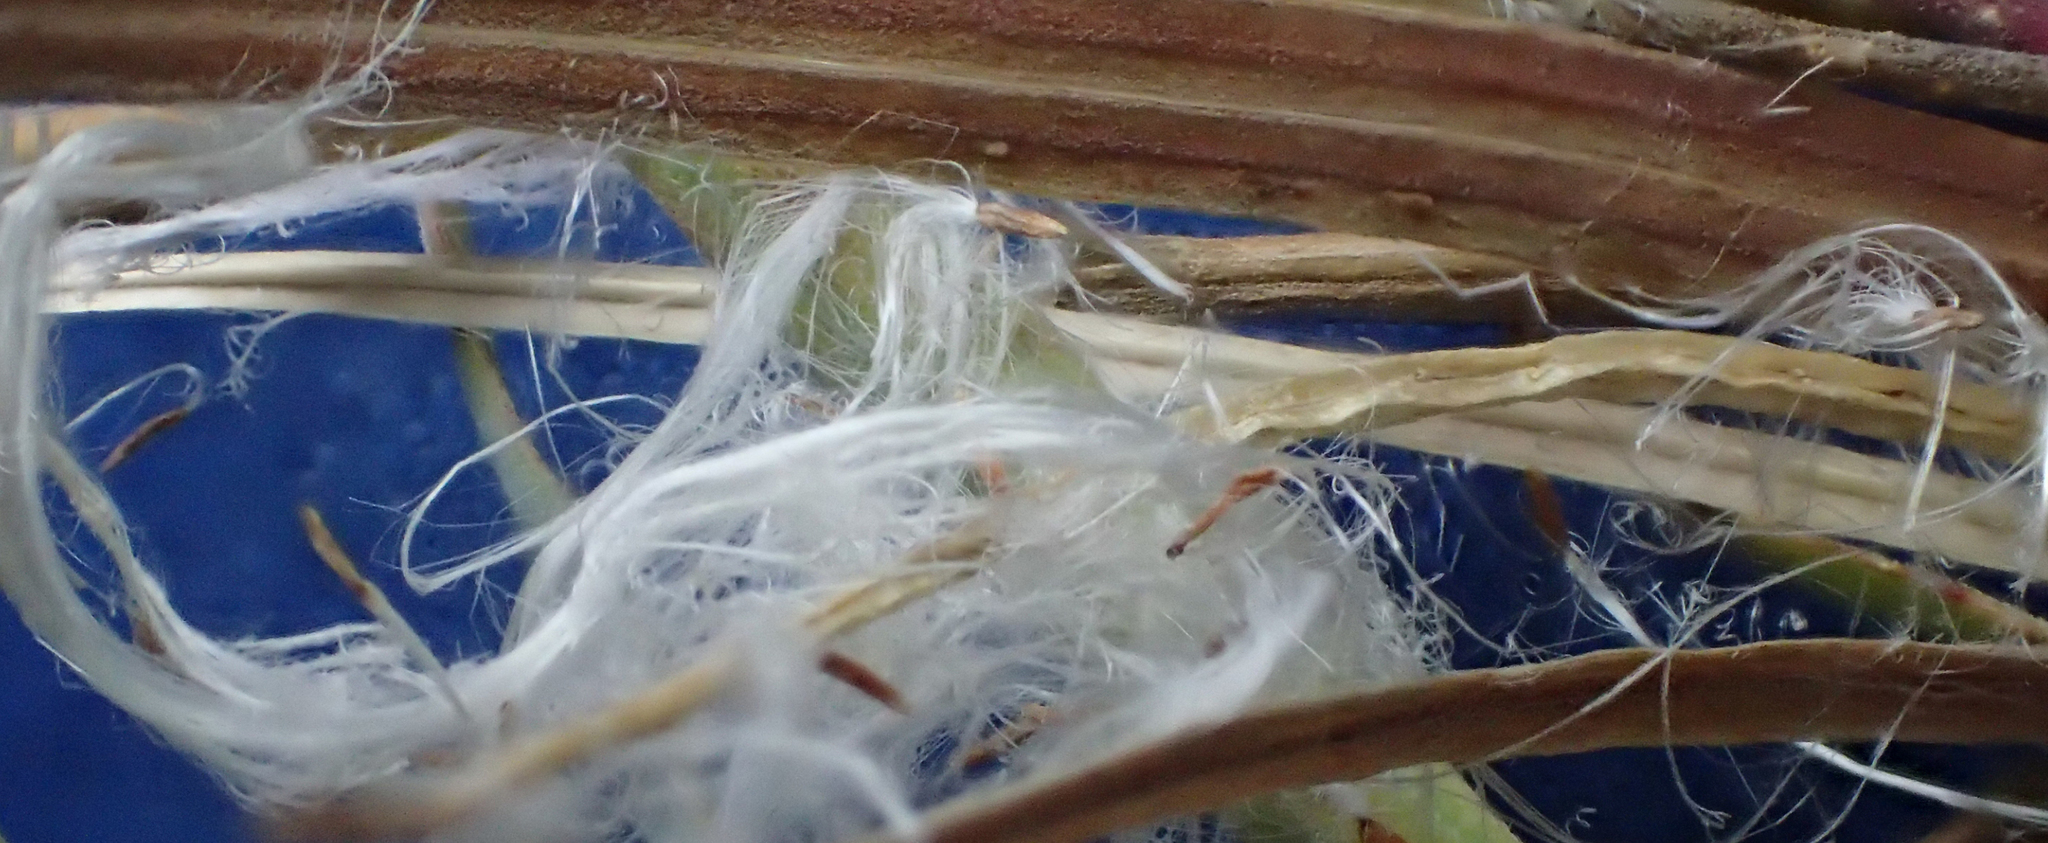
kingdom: Plantae
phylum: Tracheophyta
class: Magnoliopsida
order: Myrtales
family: Onagraceae
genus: Chamaenerion
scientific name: Chamaenerion latifolium
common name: Dwarf fireweed
